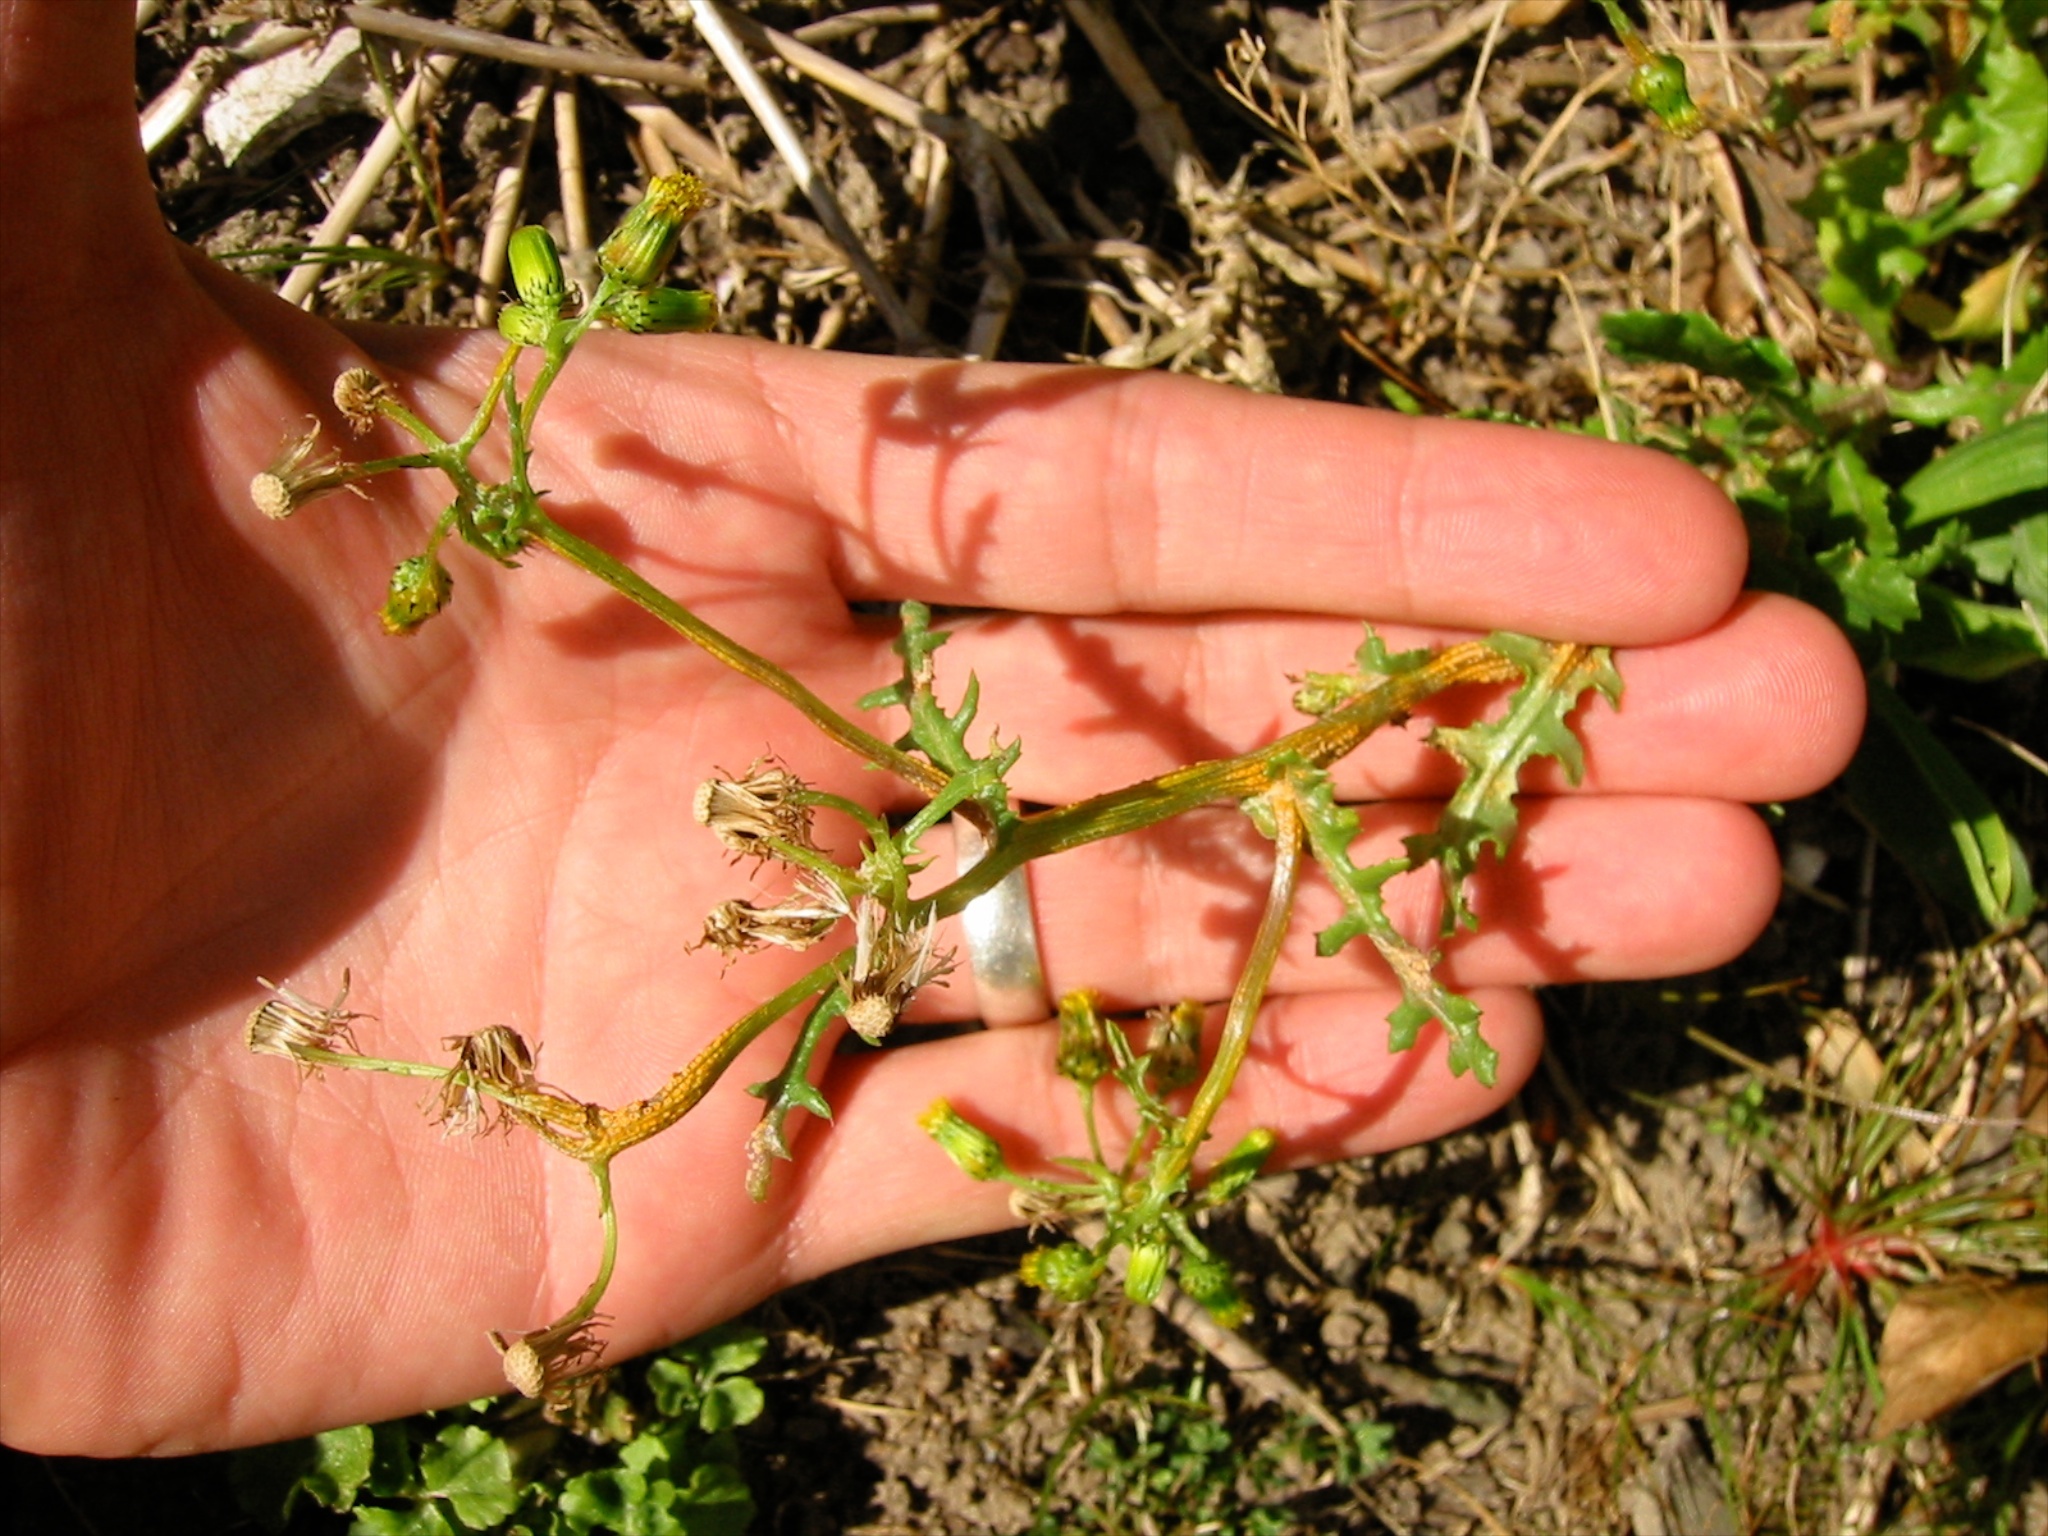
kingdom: Fungi
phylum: Basidiomycota
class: Pucciniomycetes
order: Pucciniales
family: Pucciniaceae
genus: Puccinia
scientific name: Puccinia lagenophorae
